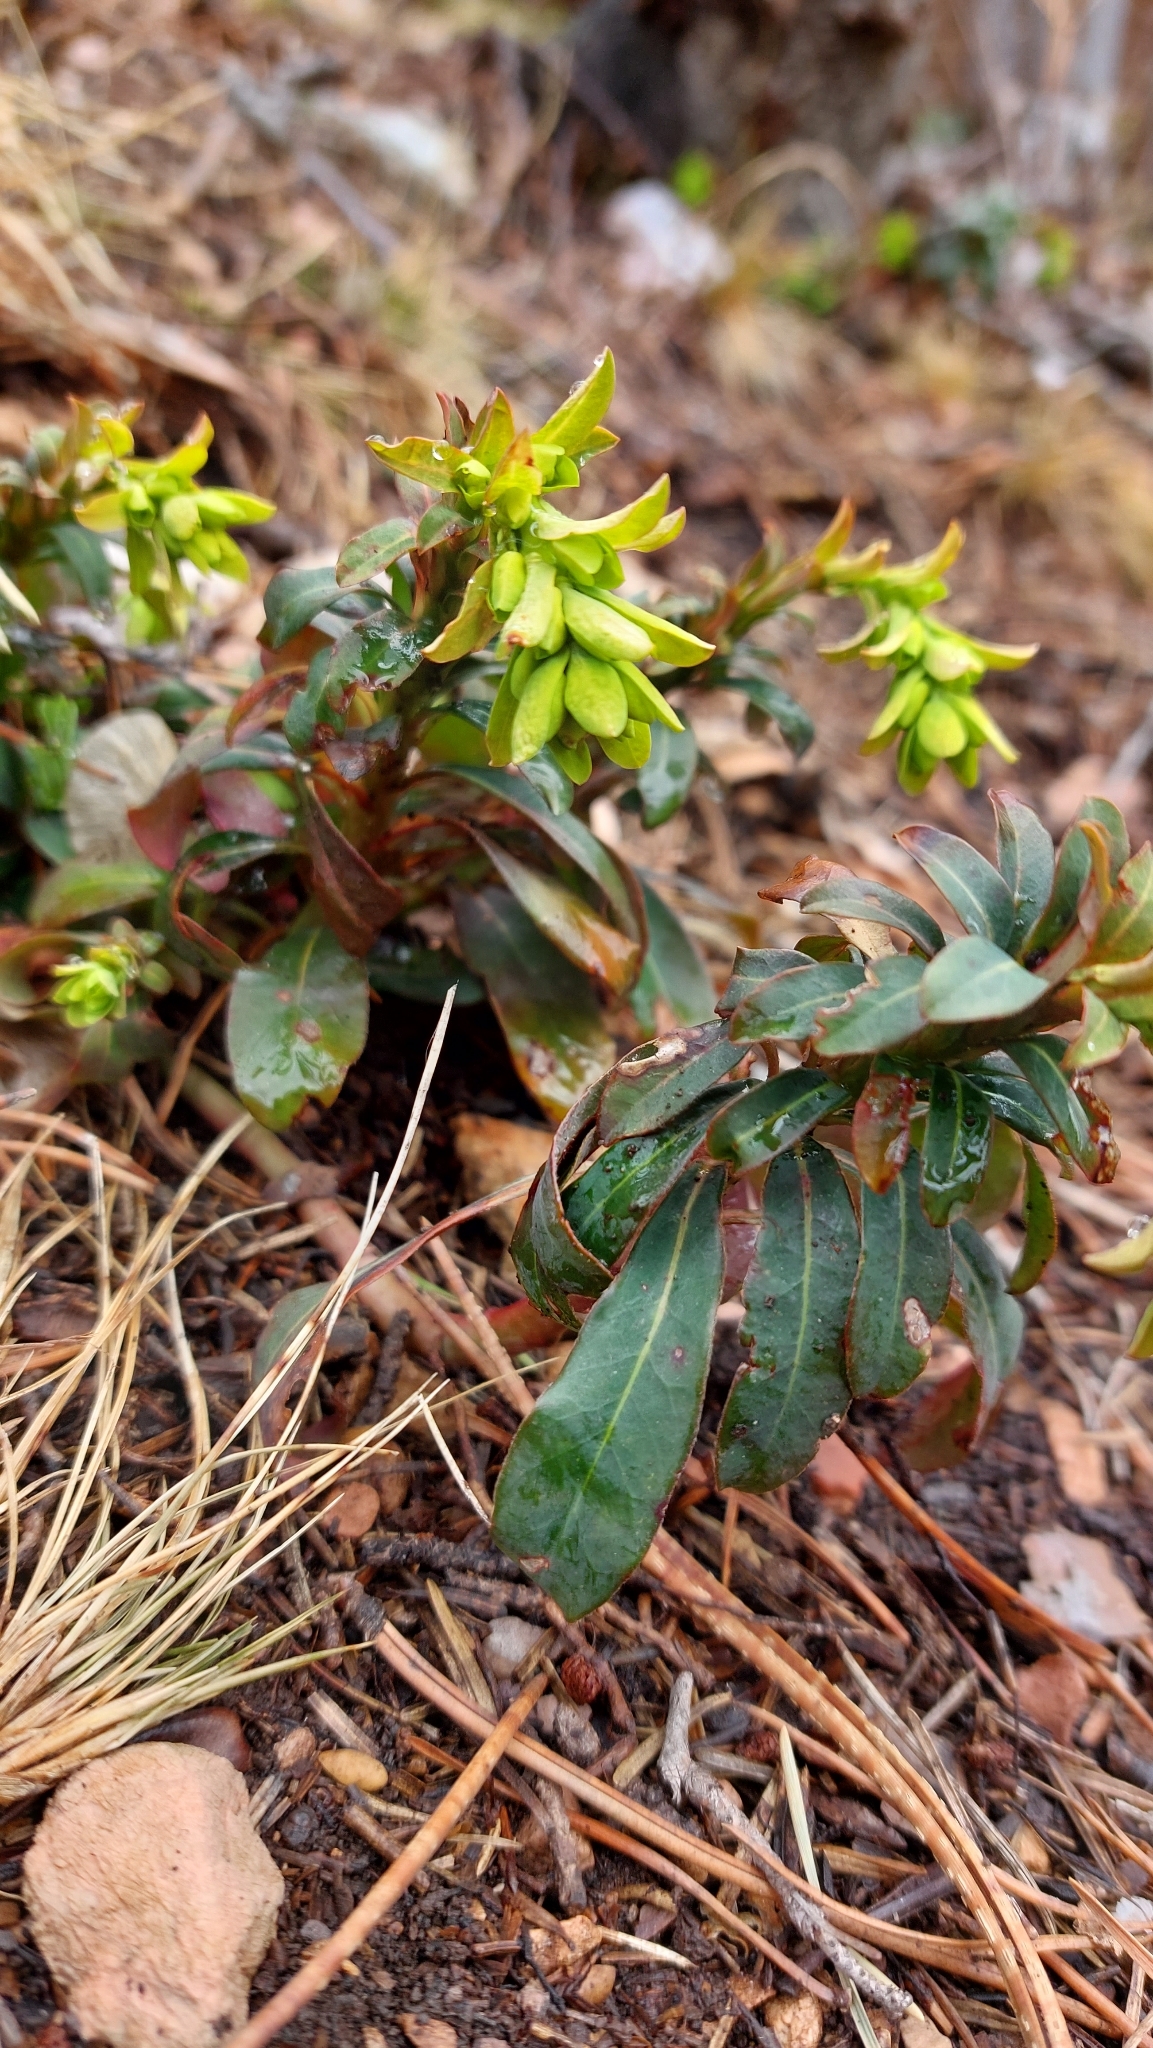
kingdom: Plantae
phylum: Tracheophyta
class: Magnoliopsida
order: Malpighiales
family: Euphorbiaceae
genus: Euphorbia
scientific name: Euphorbia amygdaloides
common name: Wood spurge
